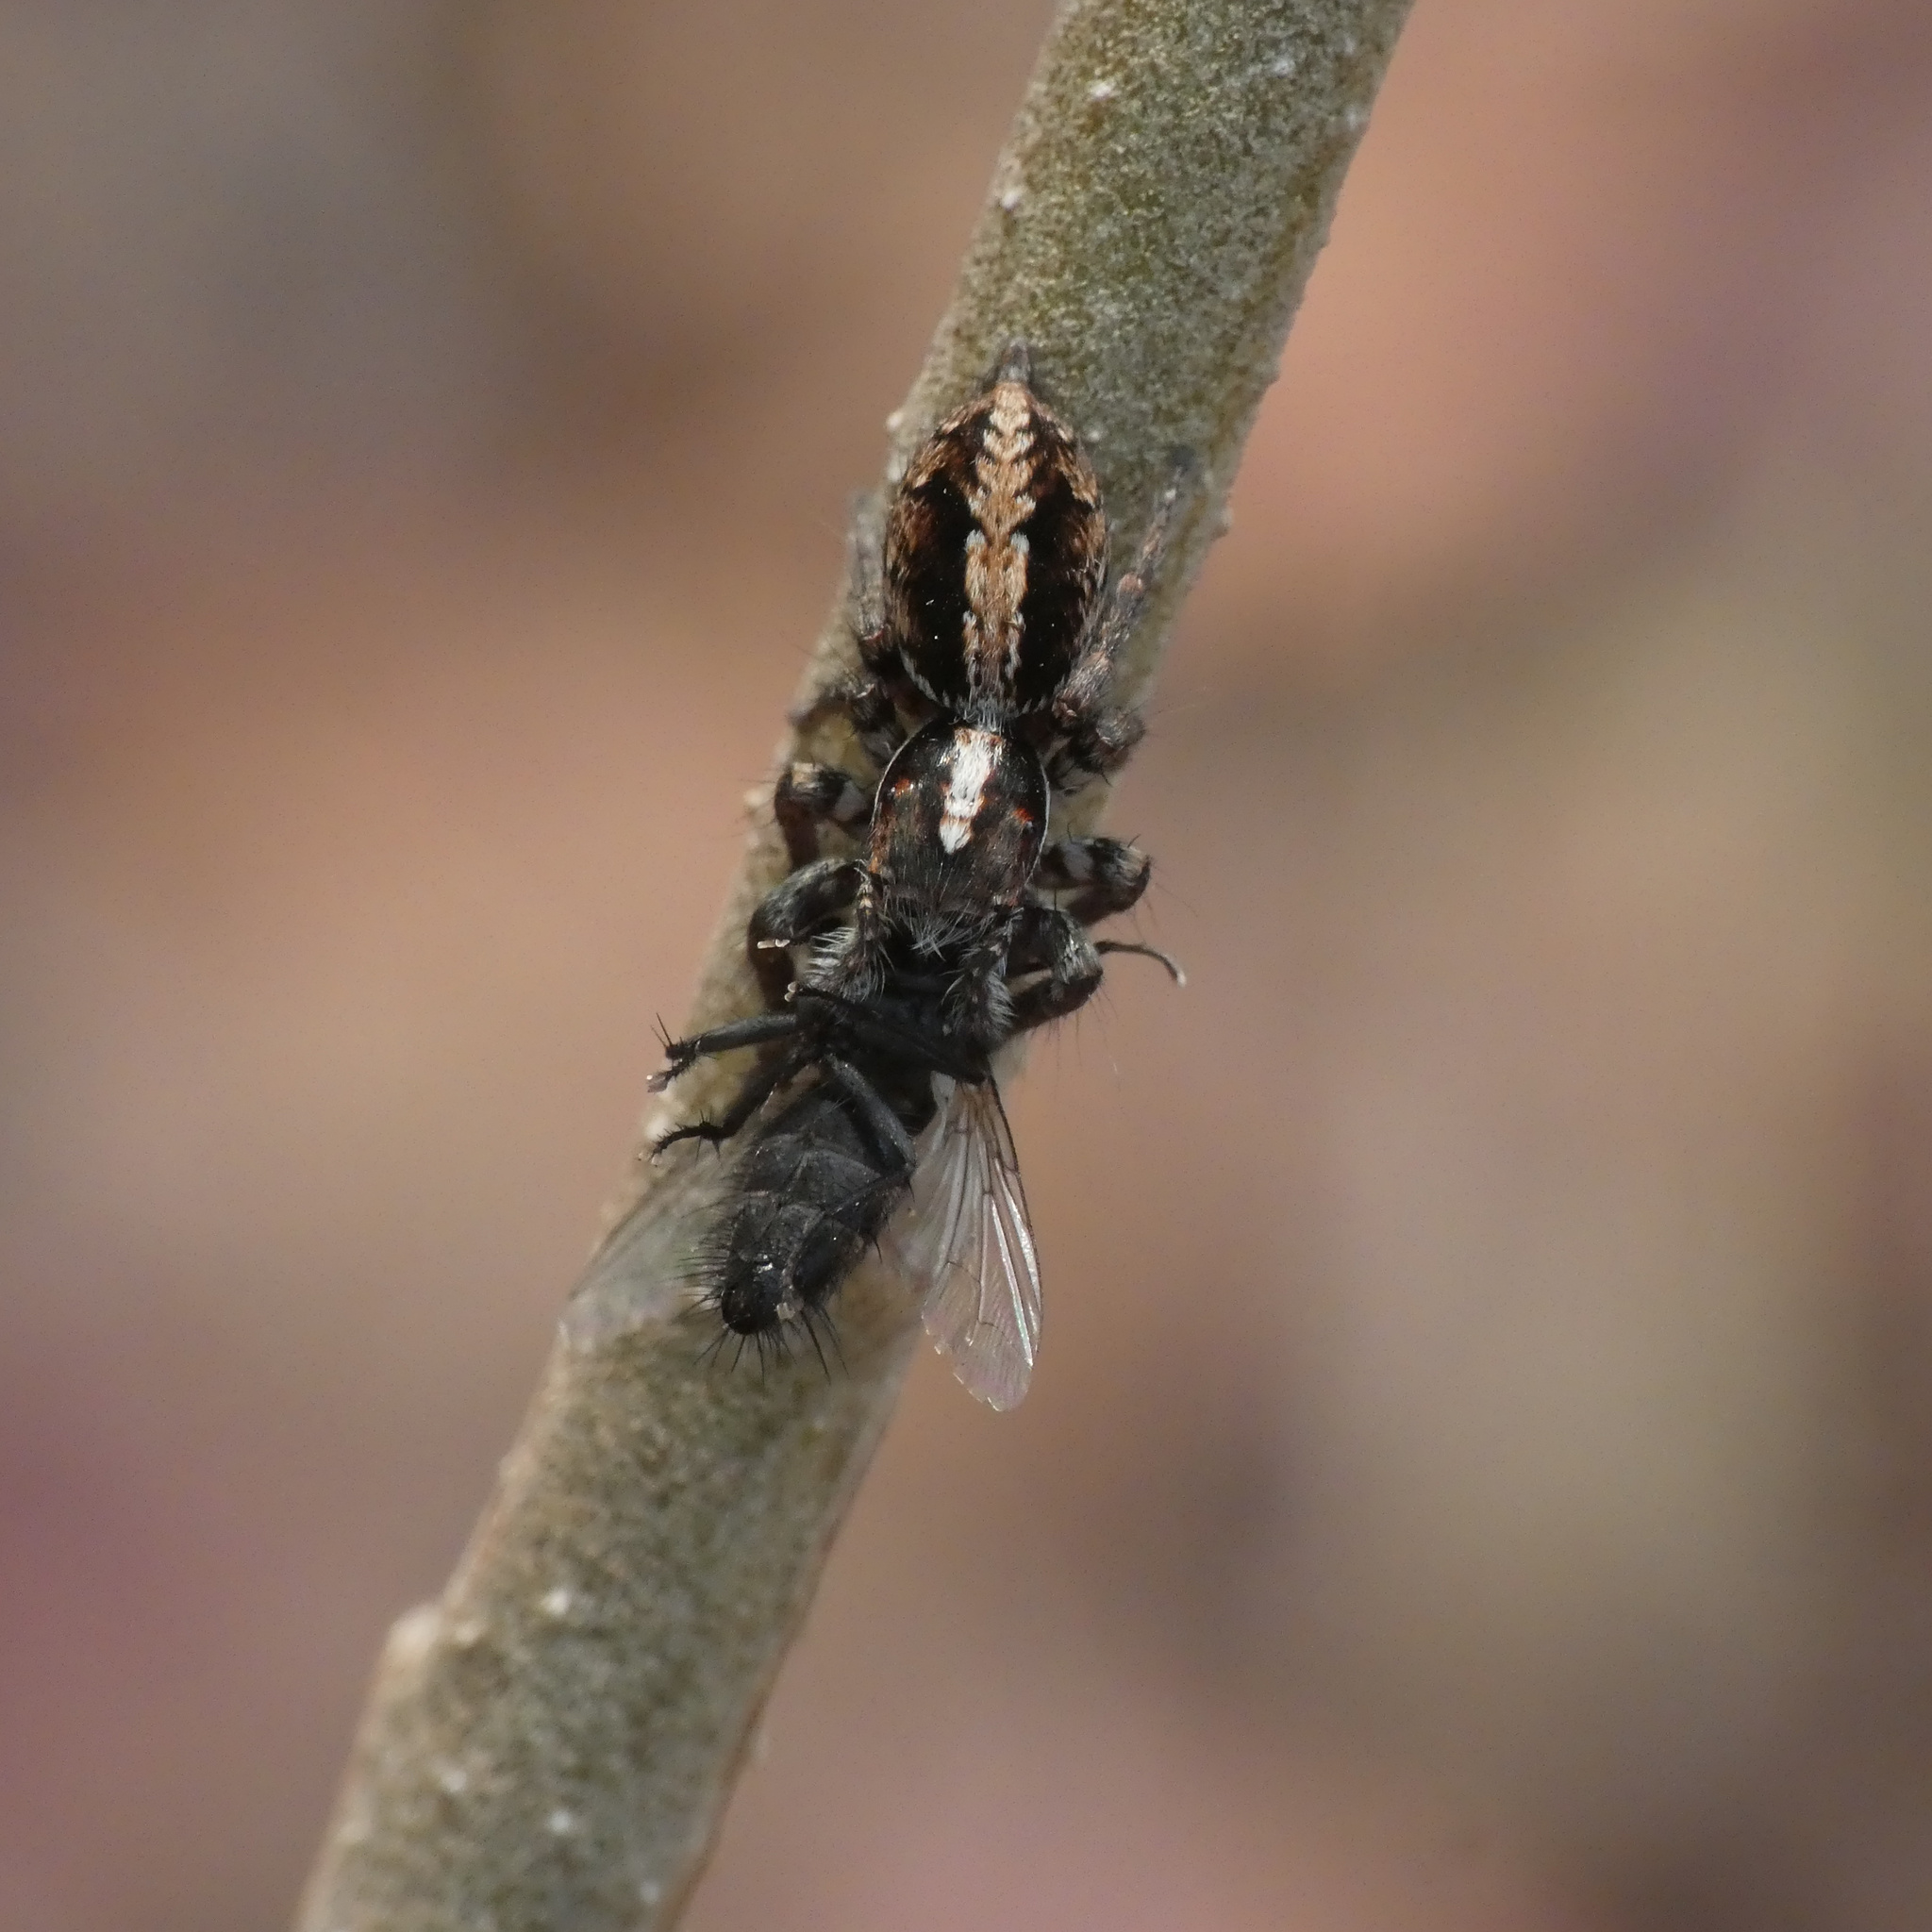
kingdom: Animalia
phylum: Arthropoda
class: Arachnida
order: Araneae
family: Salticidae
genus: Pignus
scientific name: Pignus simoni
